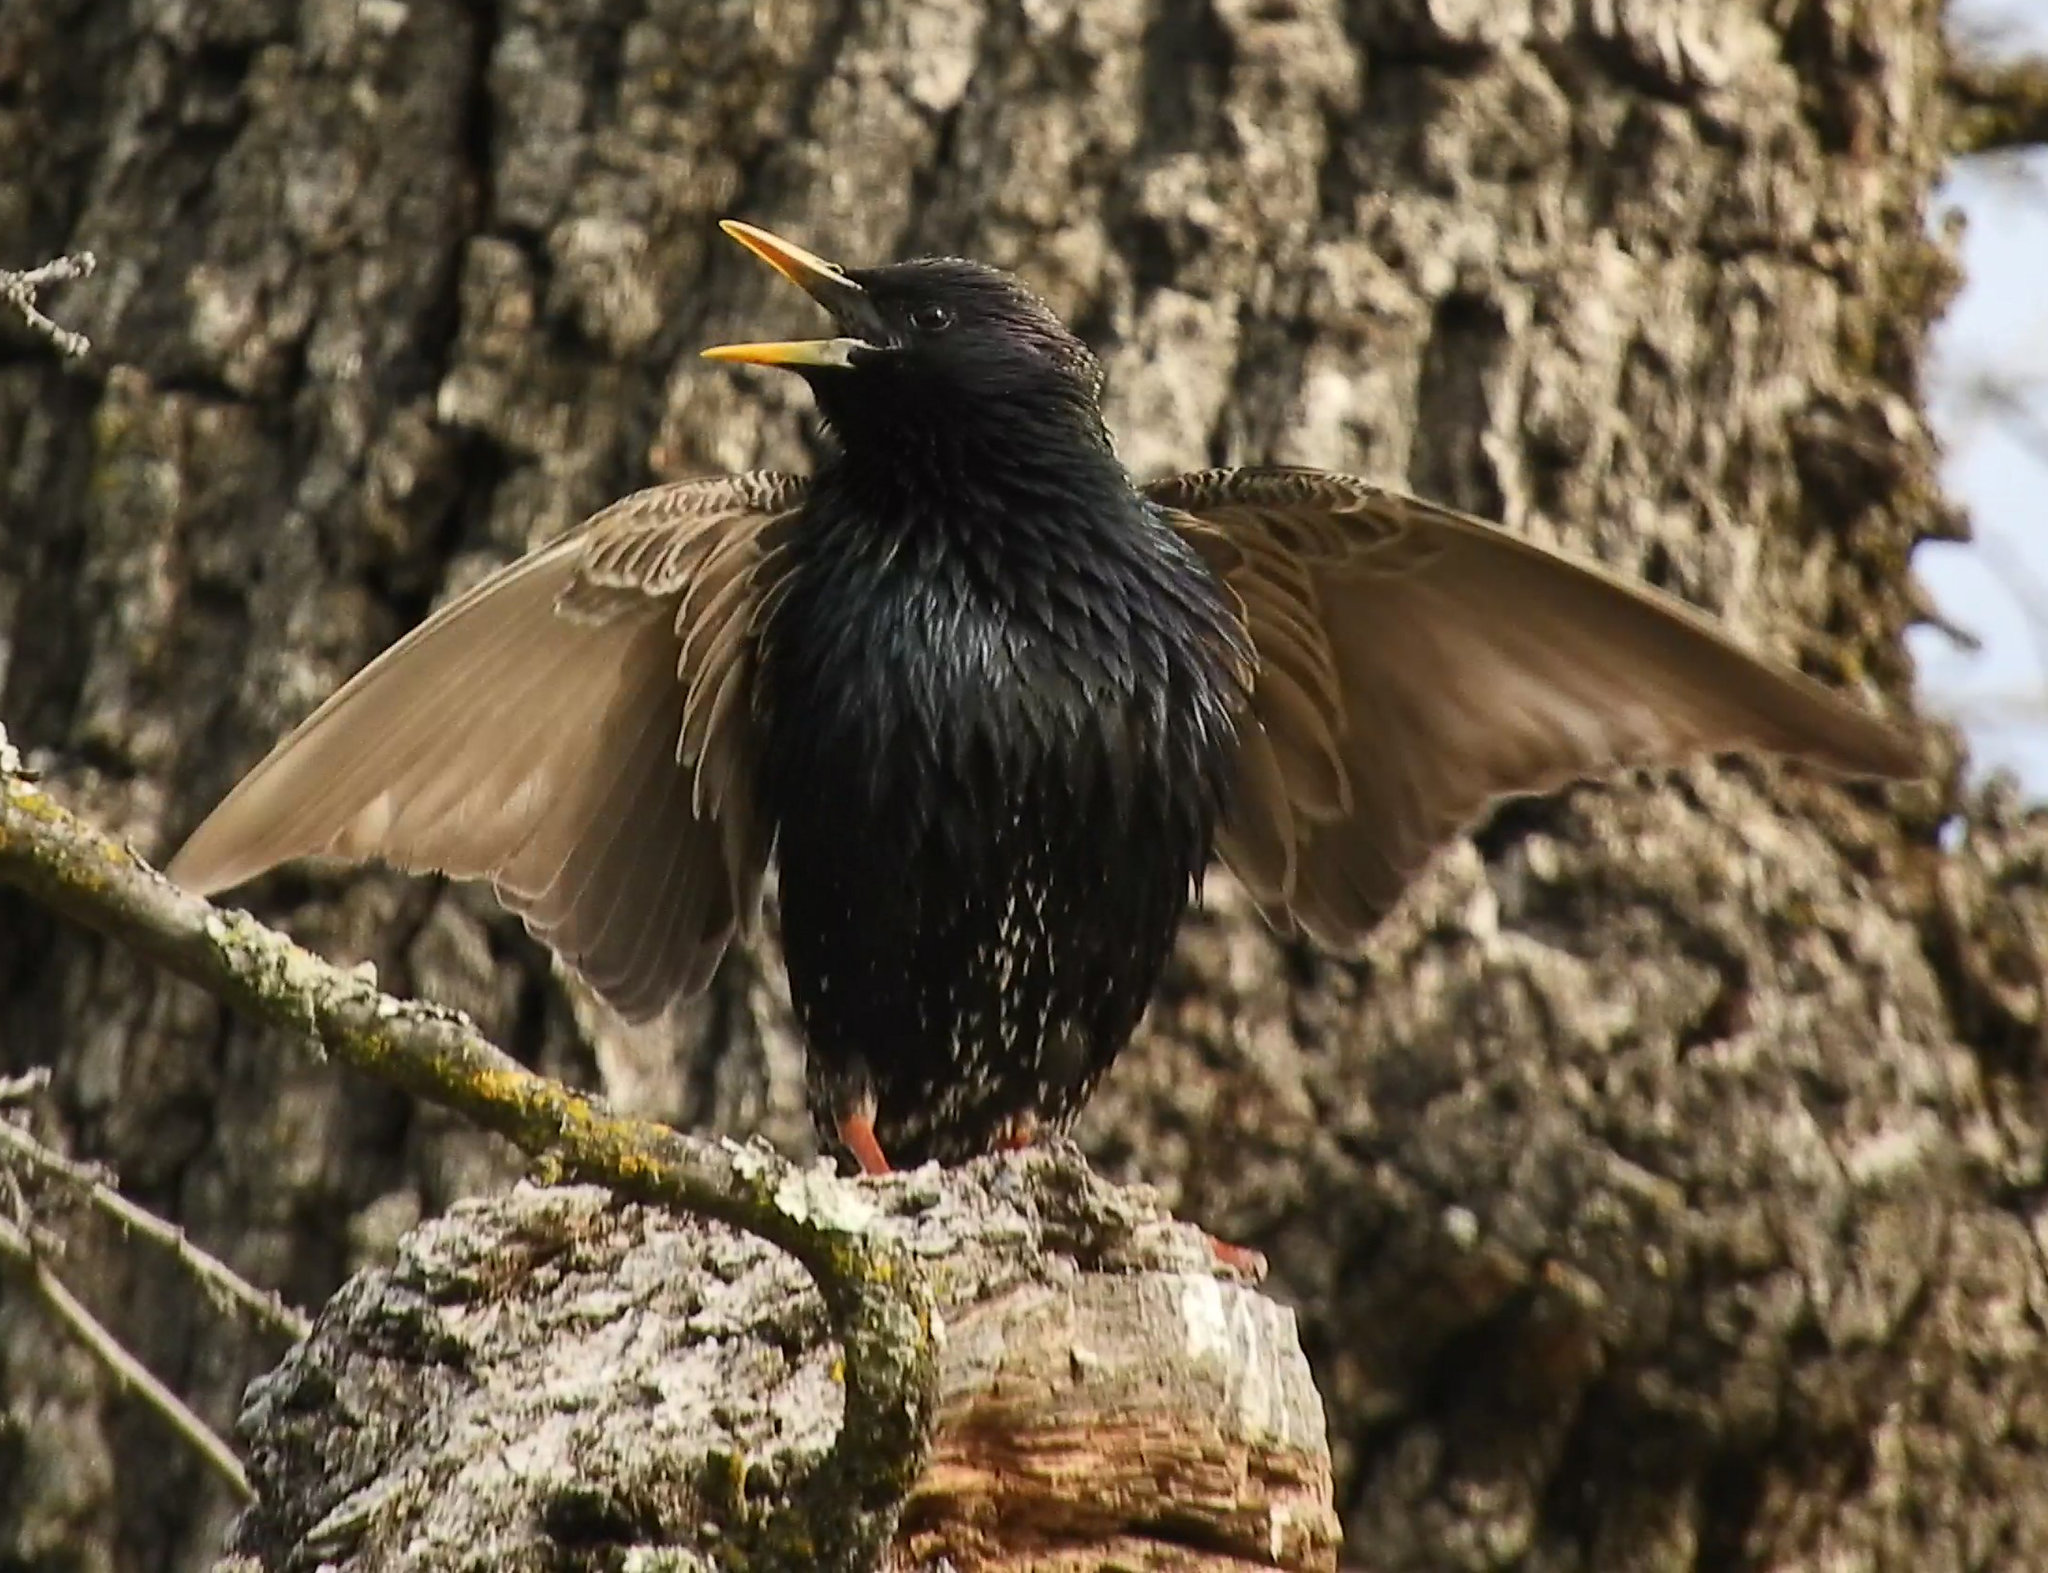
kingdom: Animalia
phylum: Chordata
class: Aves
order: Passeriformes
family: Sturnidae
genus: Sturnus
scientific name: Sturnus vulgaris
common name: Common starling
